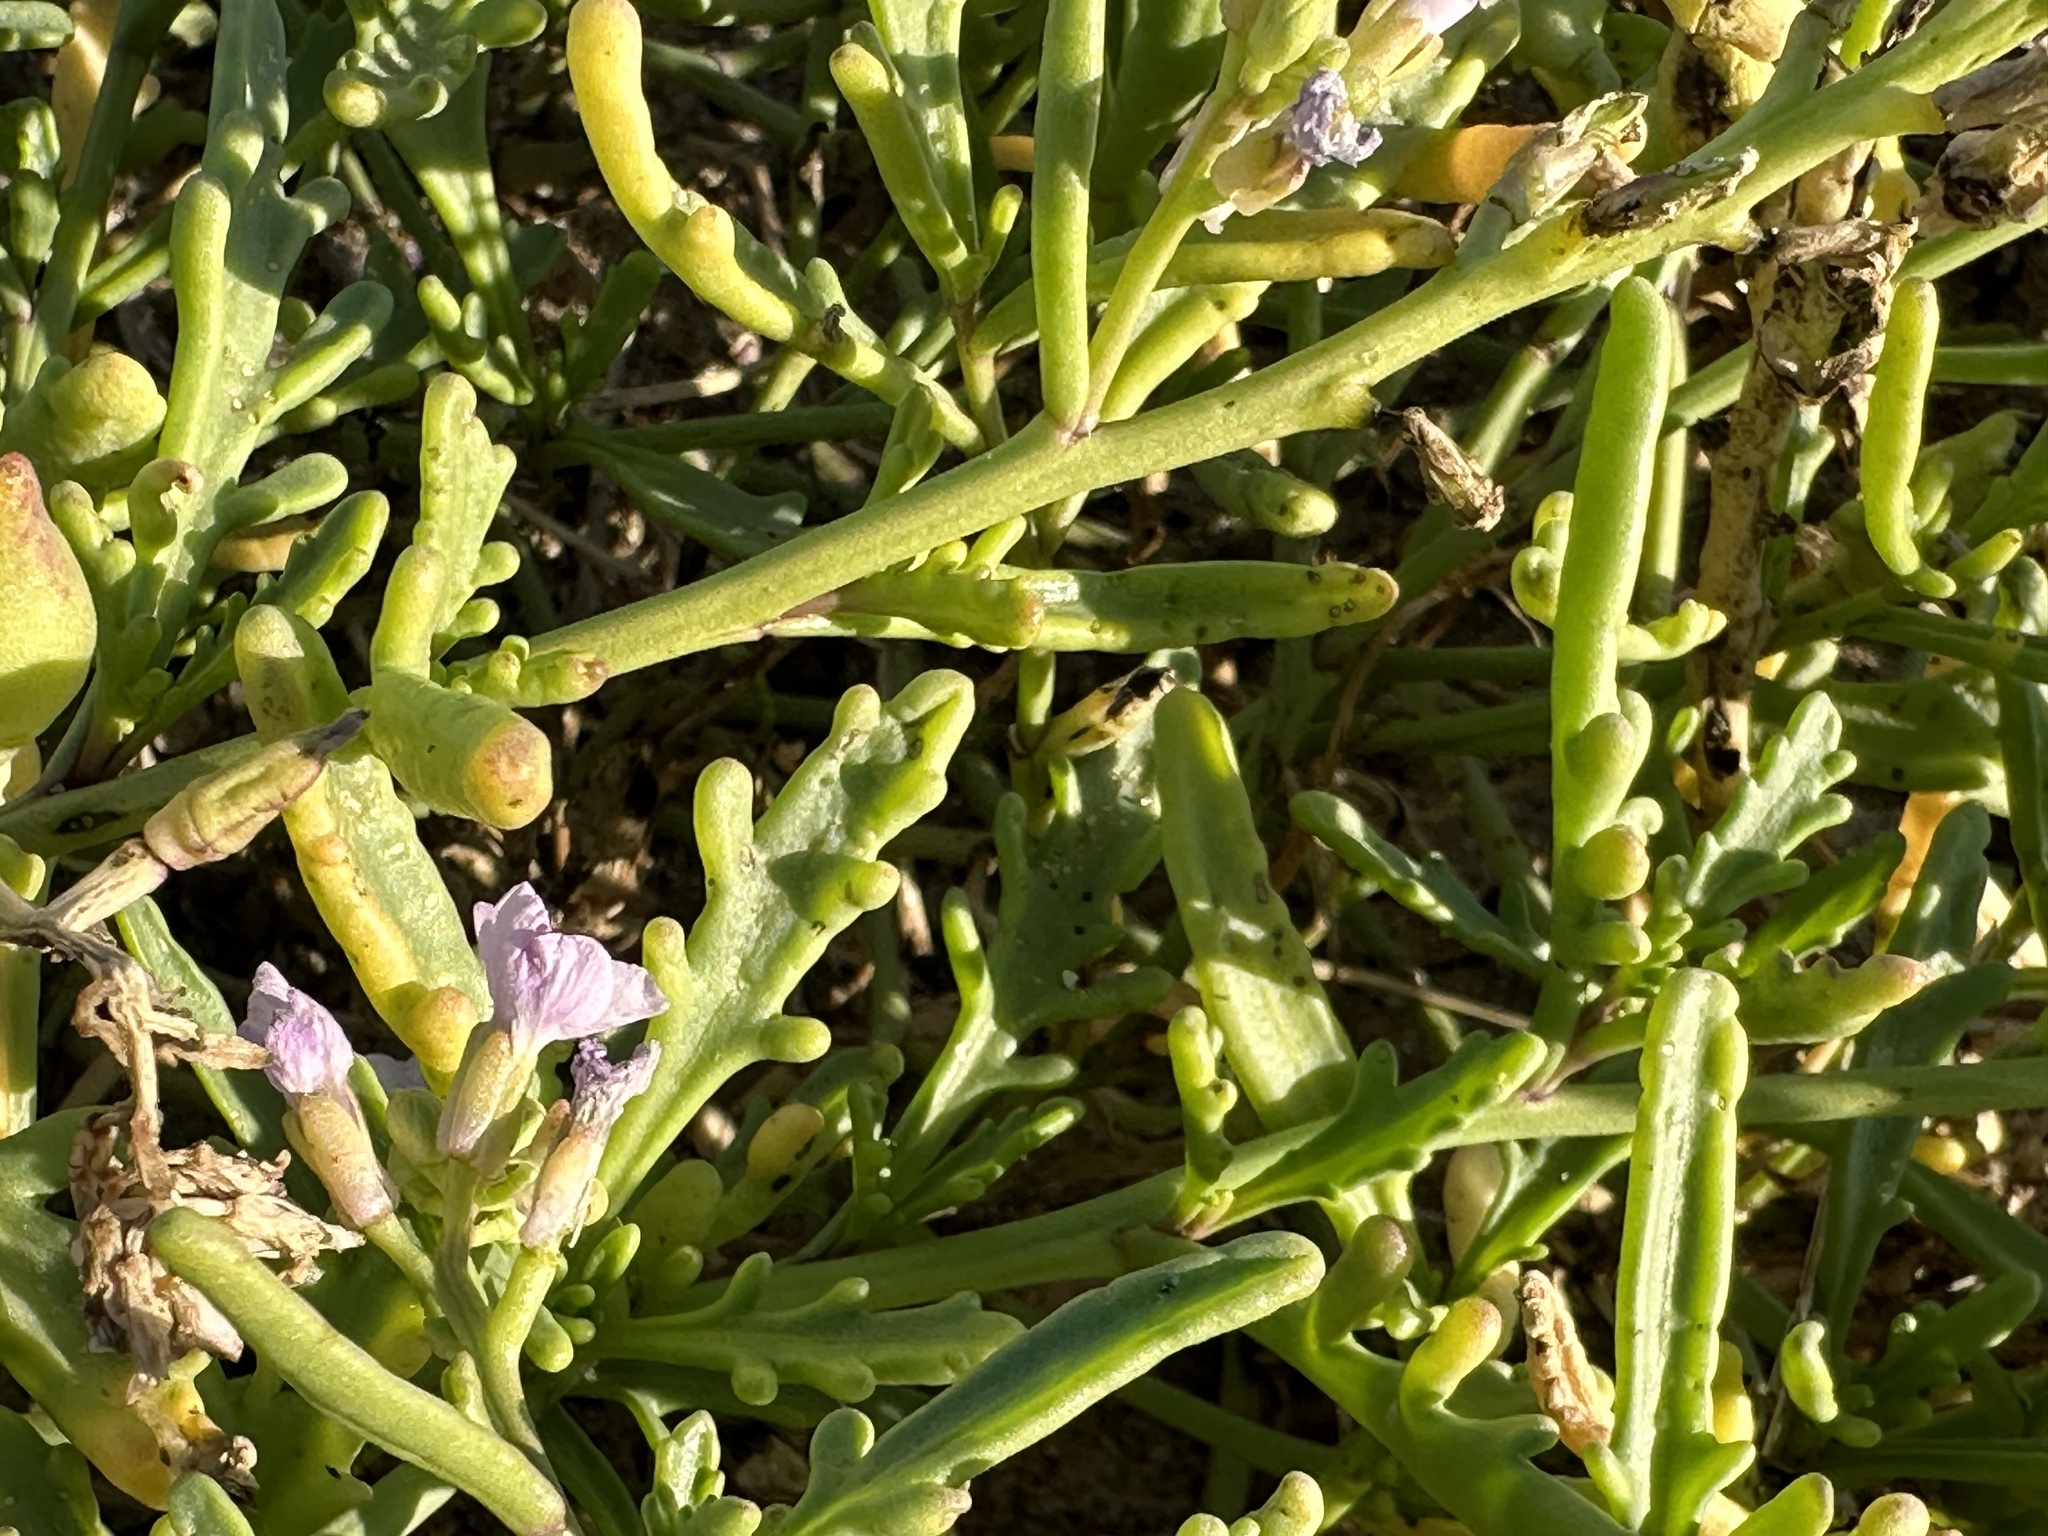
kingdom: Plantae
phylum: Tracheophyta
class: Magnoliopsida
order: Brassicales
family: Brassicaceae
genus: Cakile
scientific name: Cakile maritima
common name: Sea rocket
